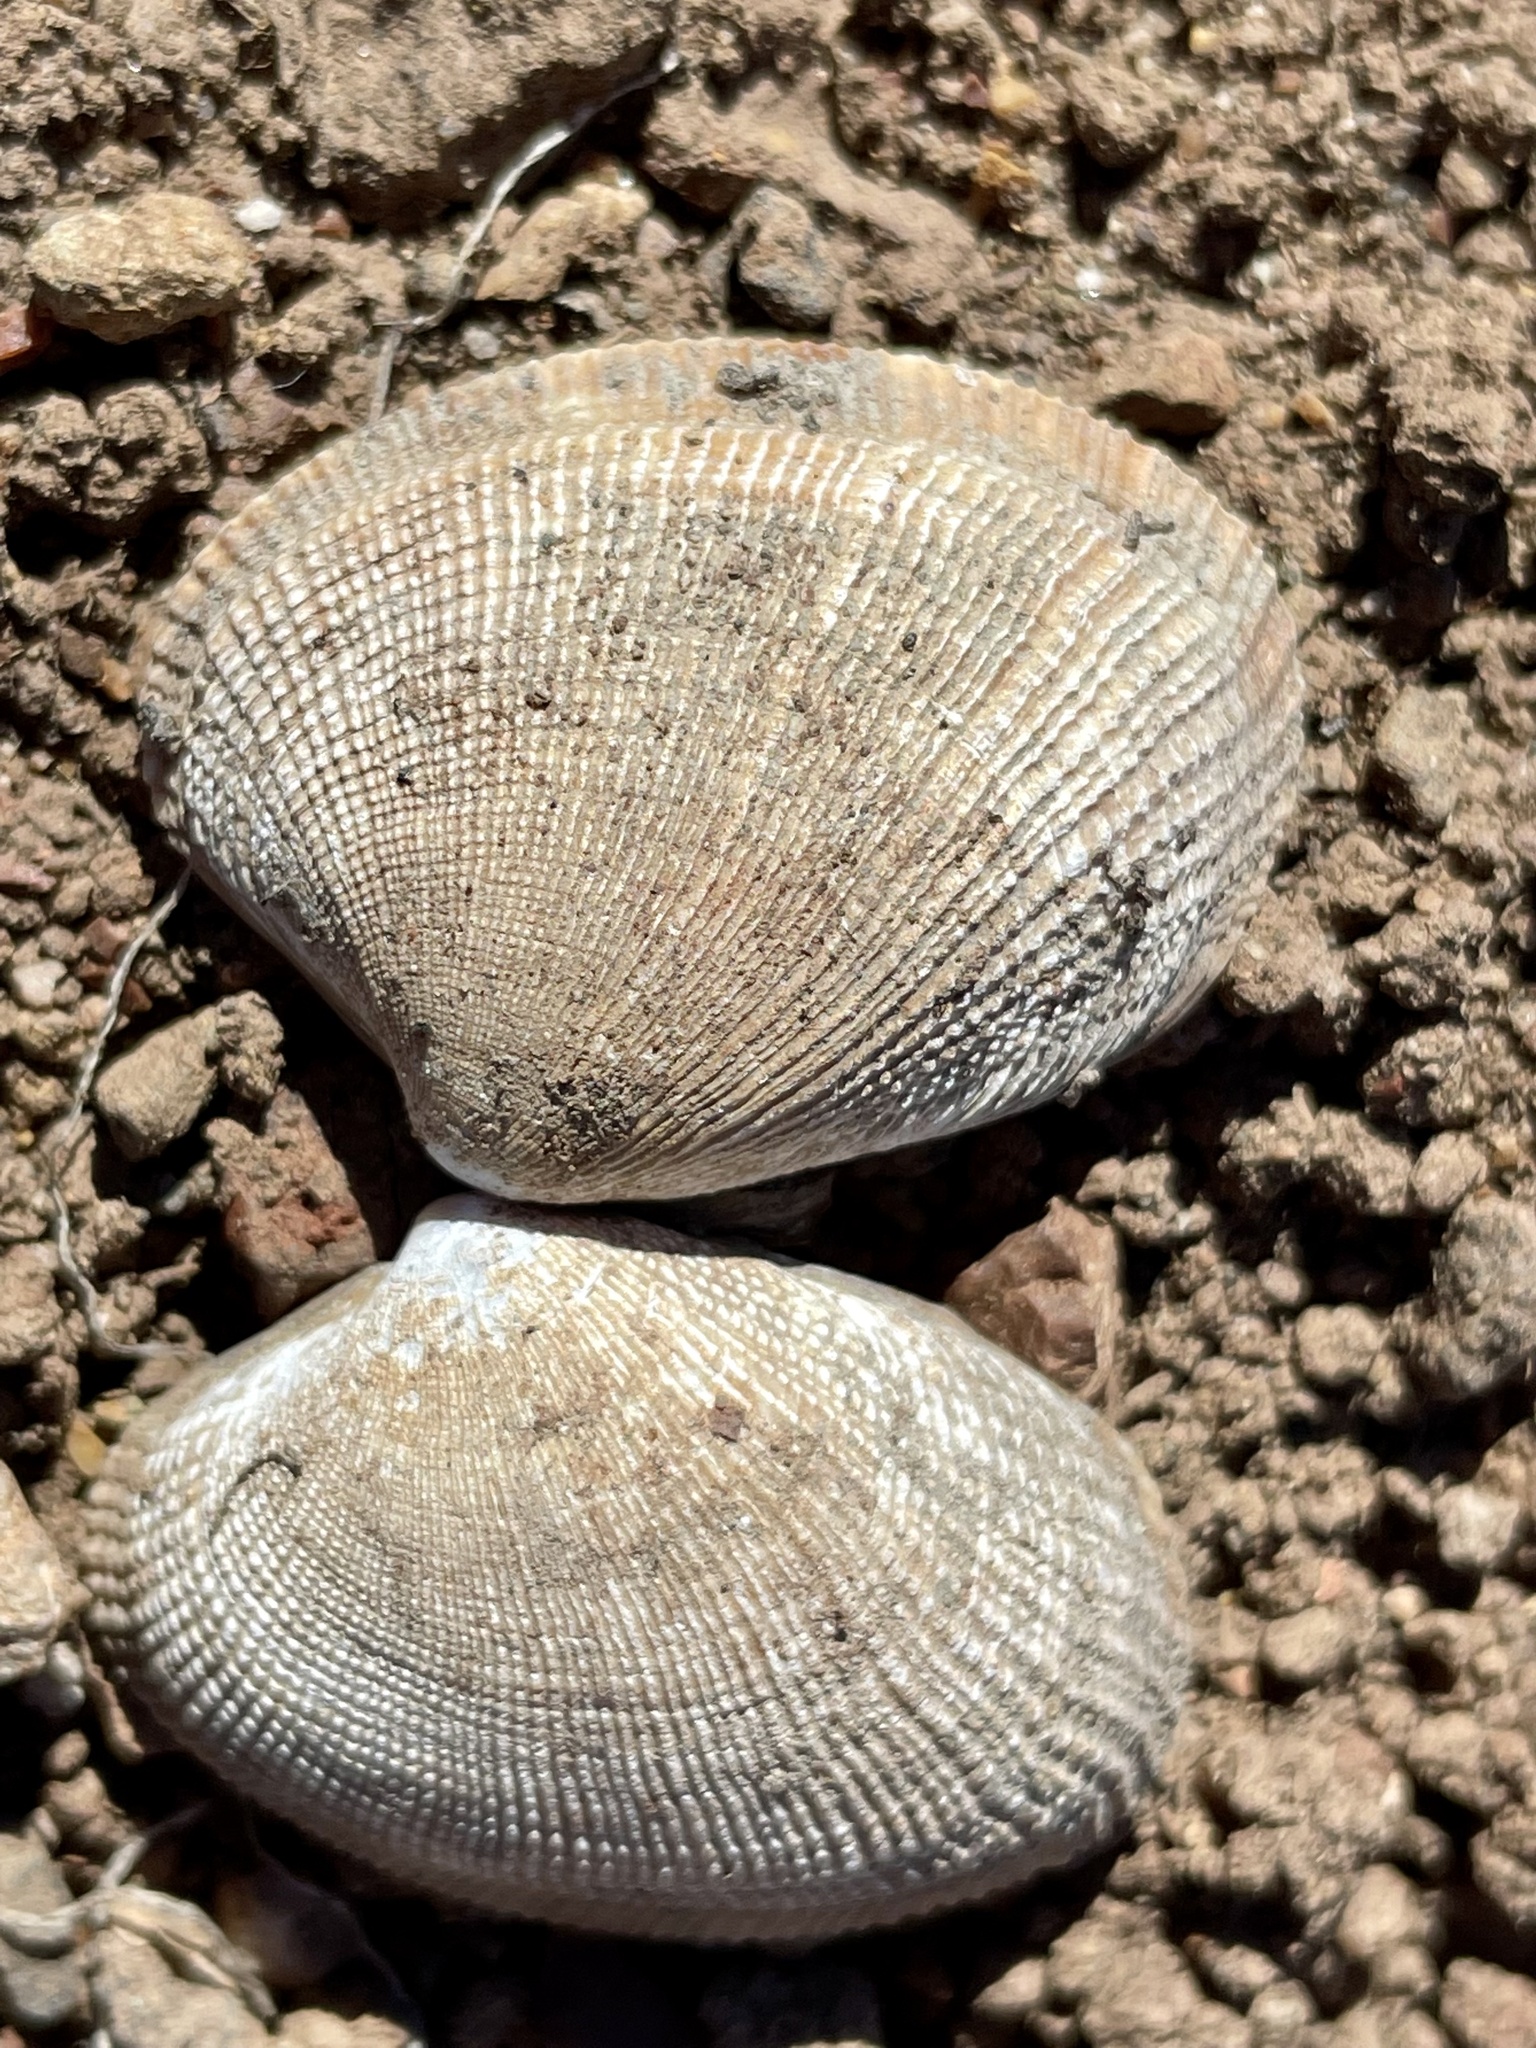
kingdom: Animalia
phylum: Mollusca
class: Bivalvia
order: Venerida
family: Veneridae
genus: Ruditapes
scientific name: Ruditapes philippinarum
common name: Manila clam
